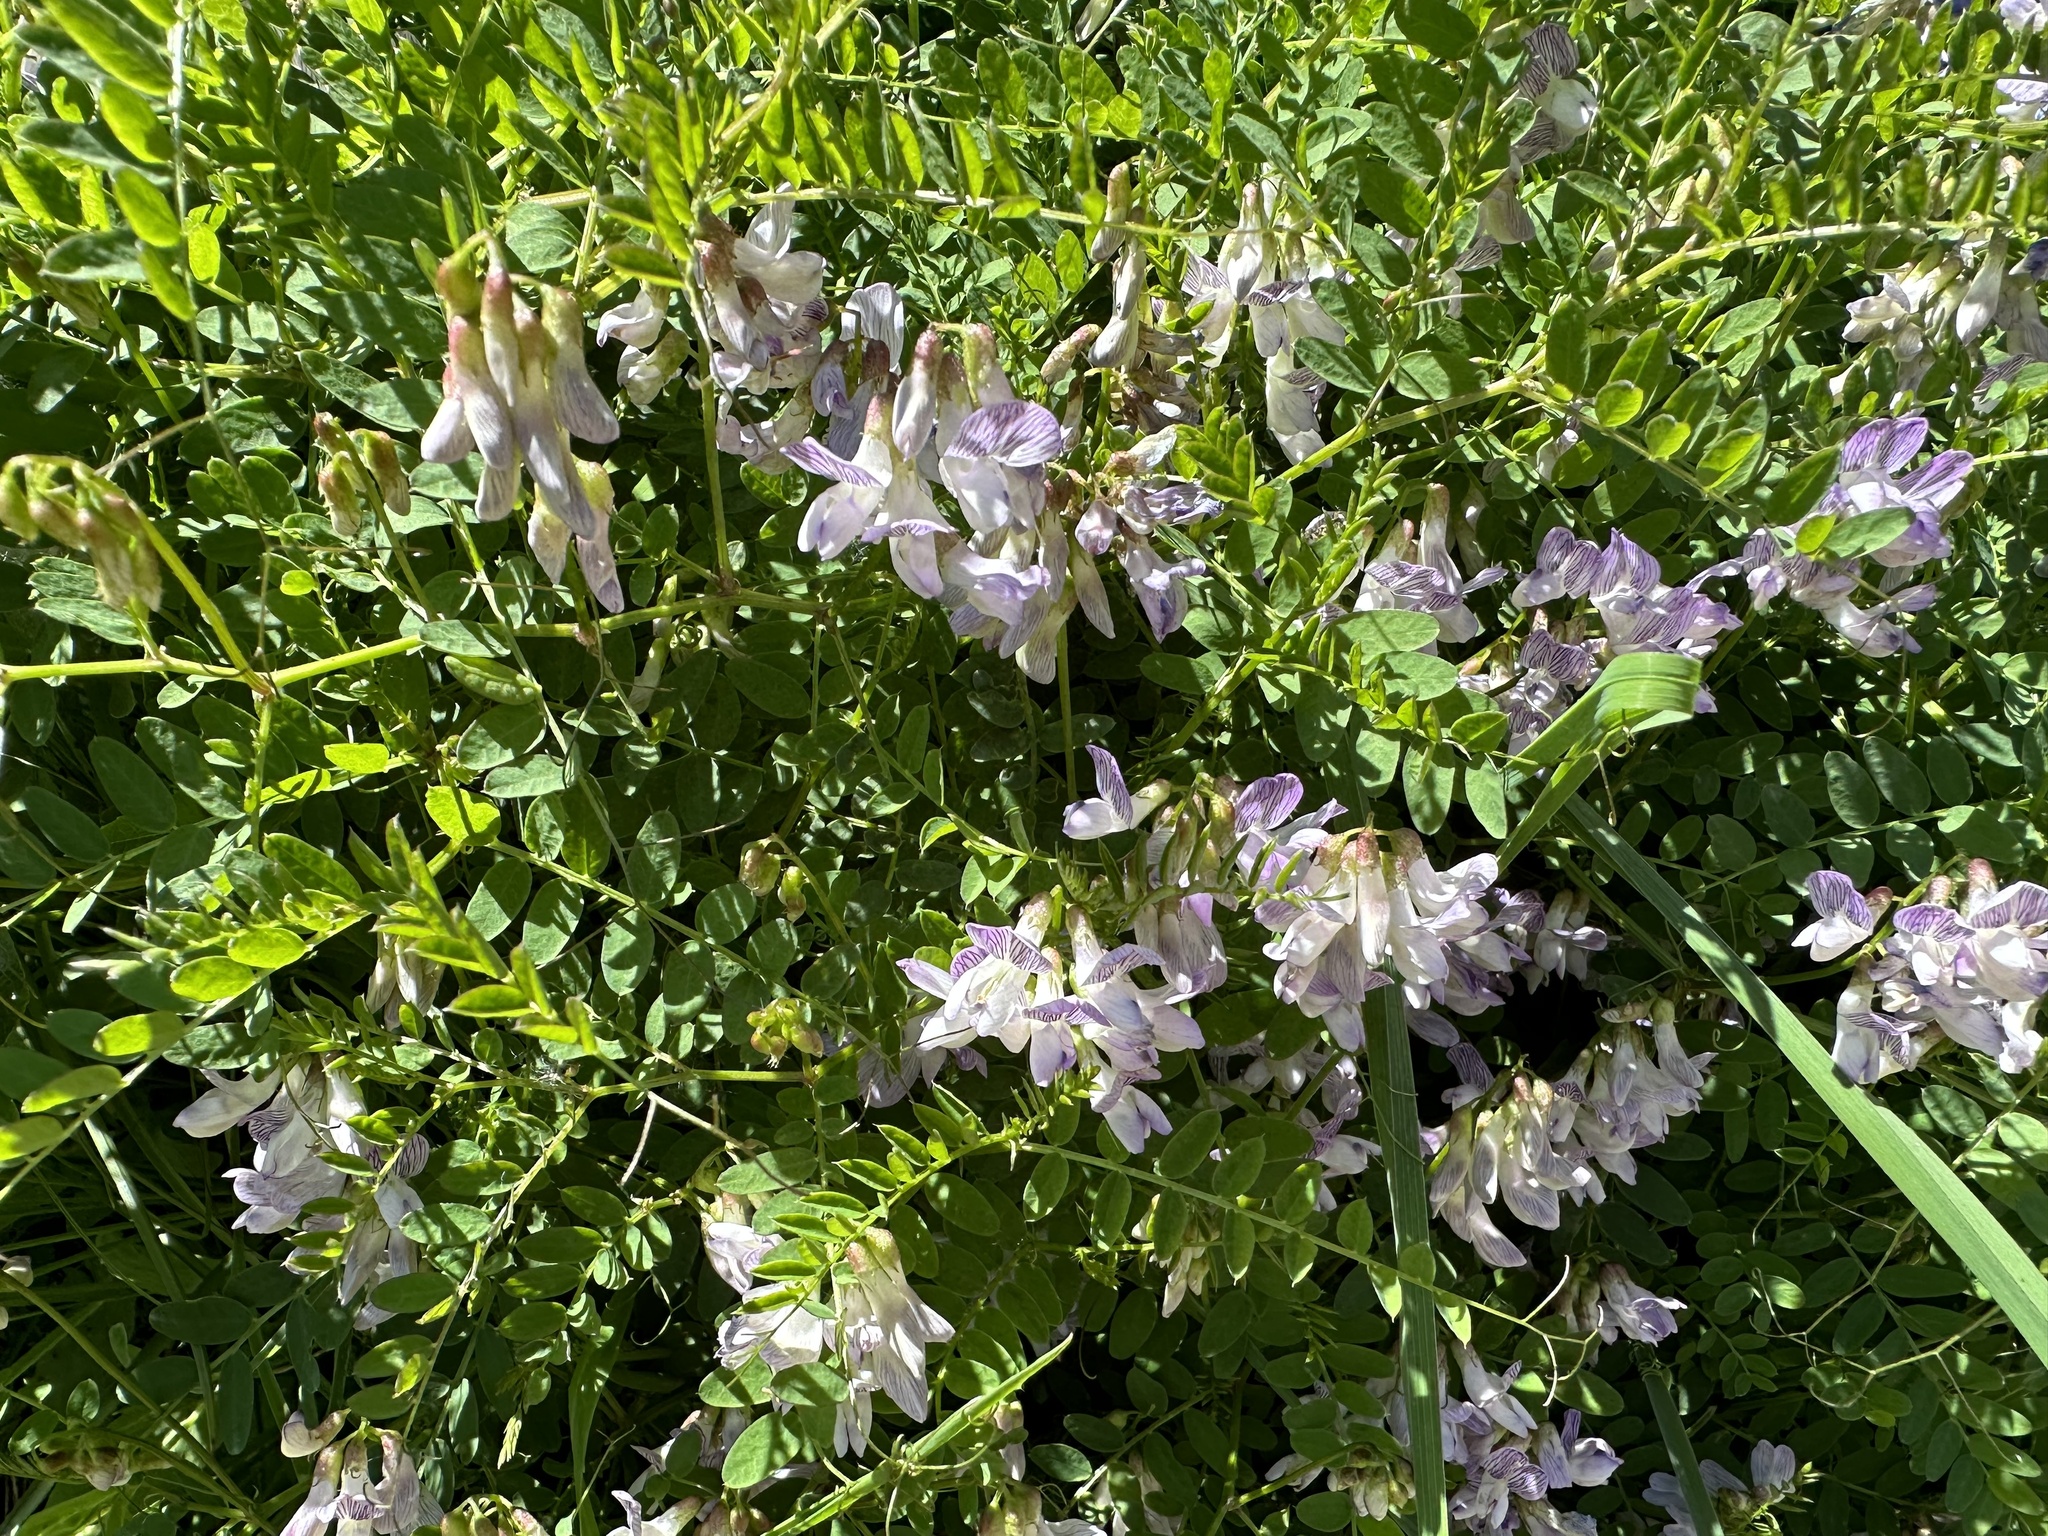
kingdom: Plantae
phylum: Tracheophyta
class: Magnoliopsida
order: Fabales
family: Fabaceae
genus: Vicia
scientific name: Vicia sylvatica
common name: Wood vetch
